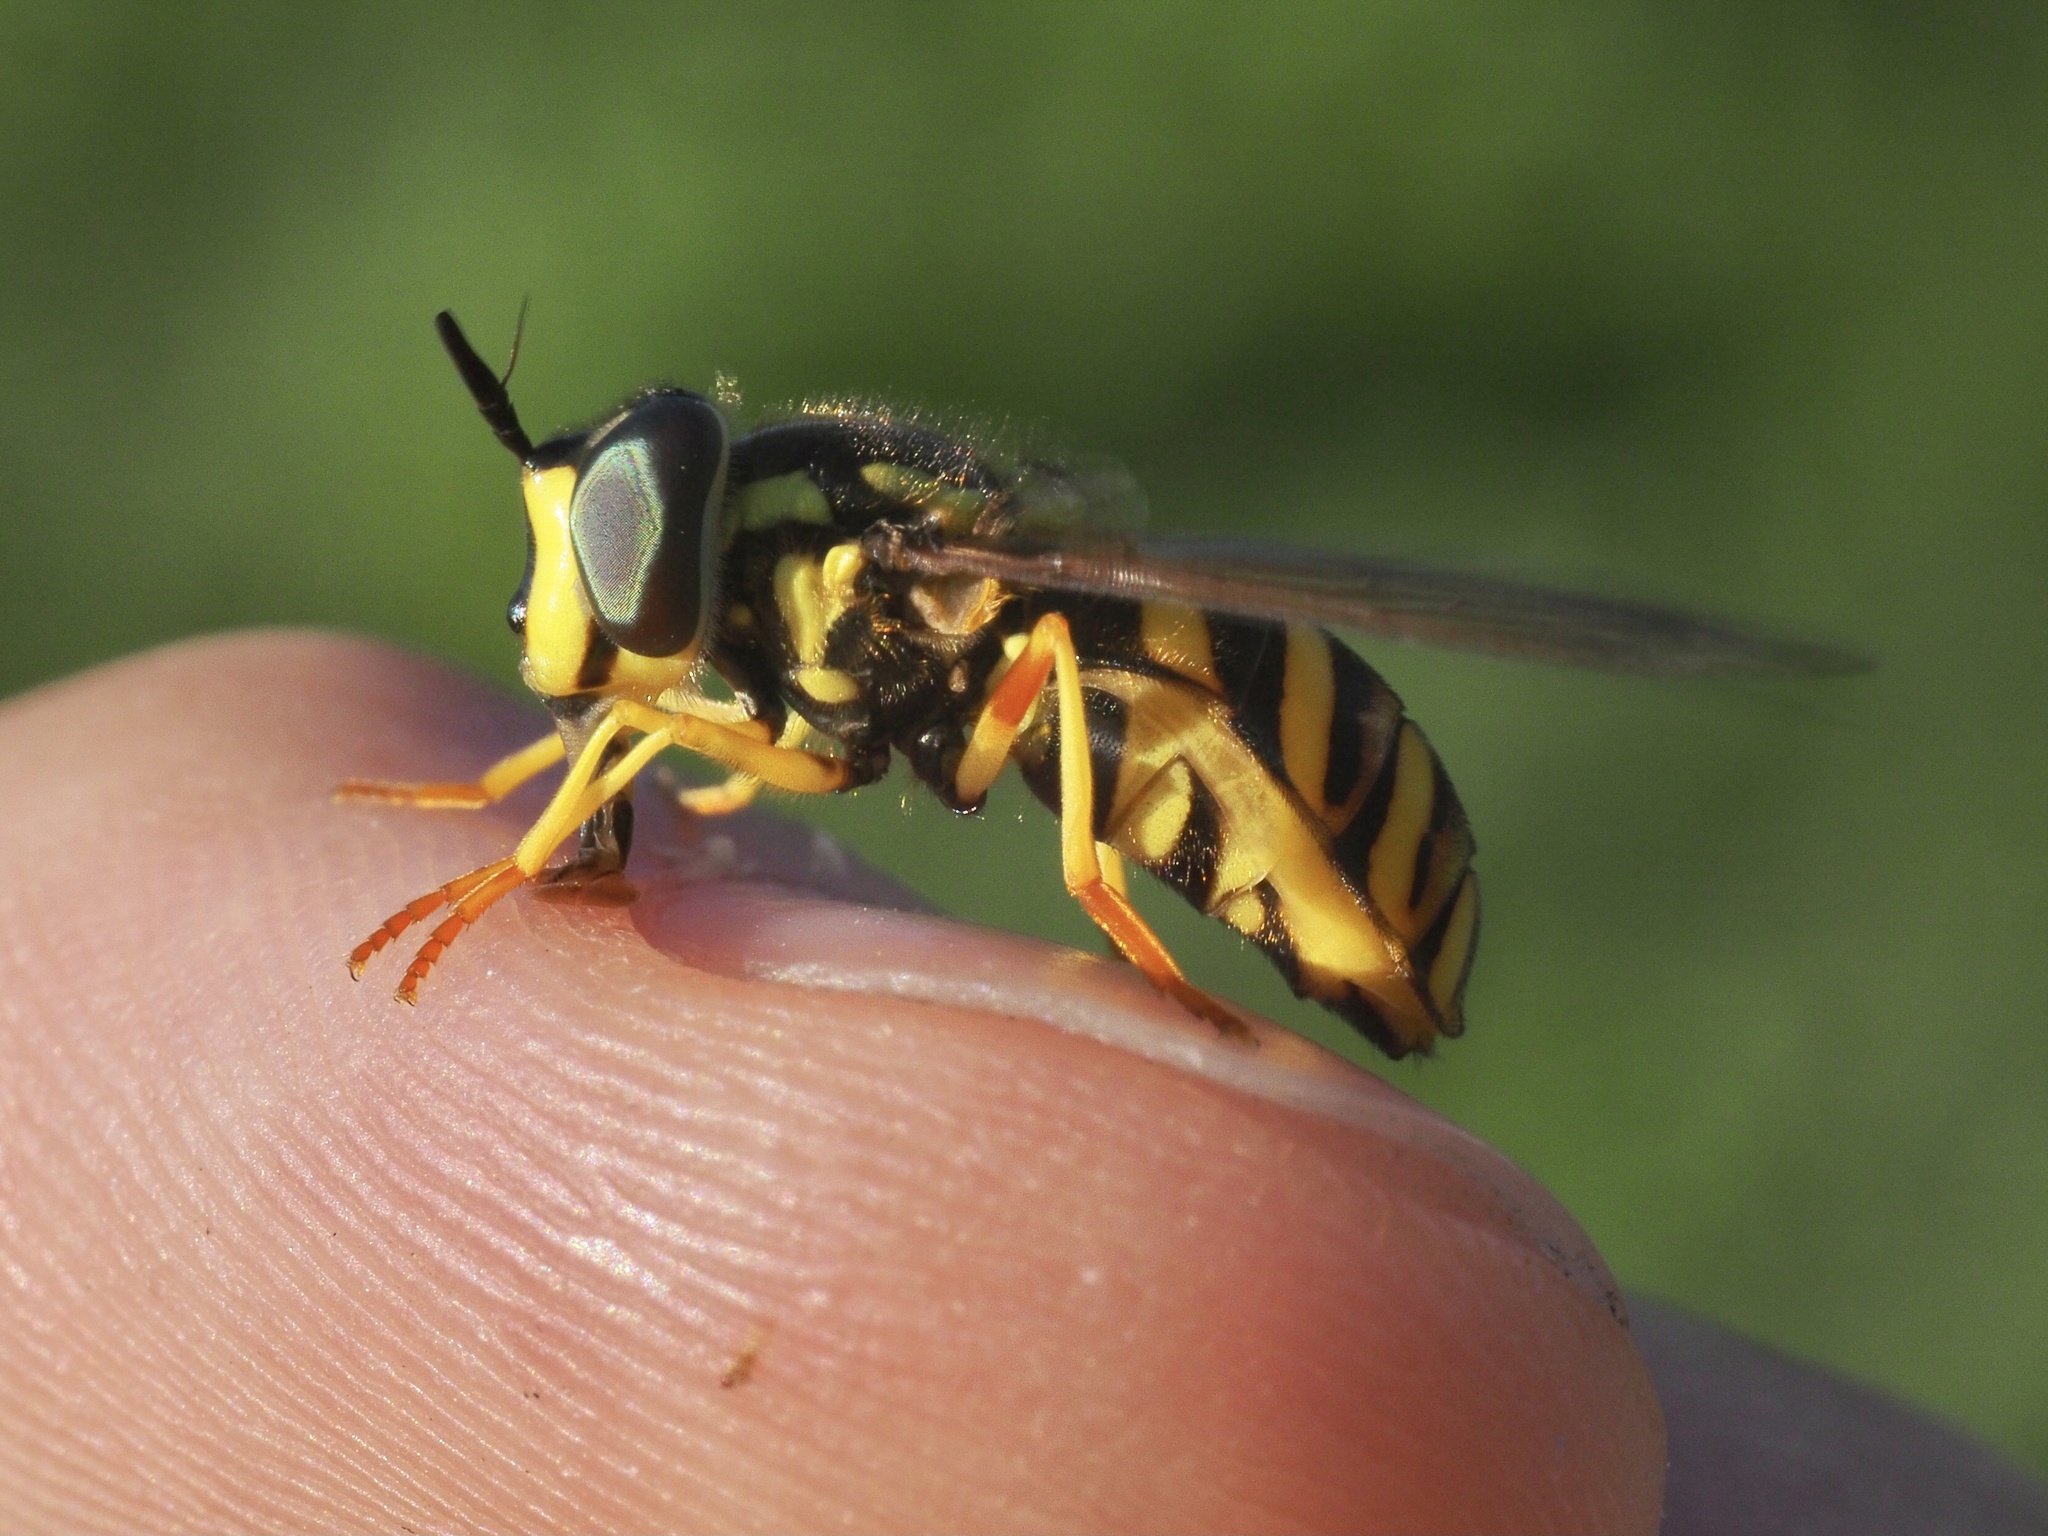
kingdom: Animalia
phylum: Arthropoda
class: Insecta
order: Diptera
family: Syrphidae
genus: Chrysotoxum
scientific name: Chrysotoxum intermedium
